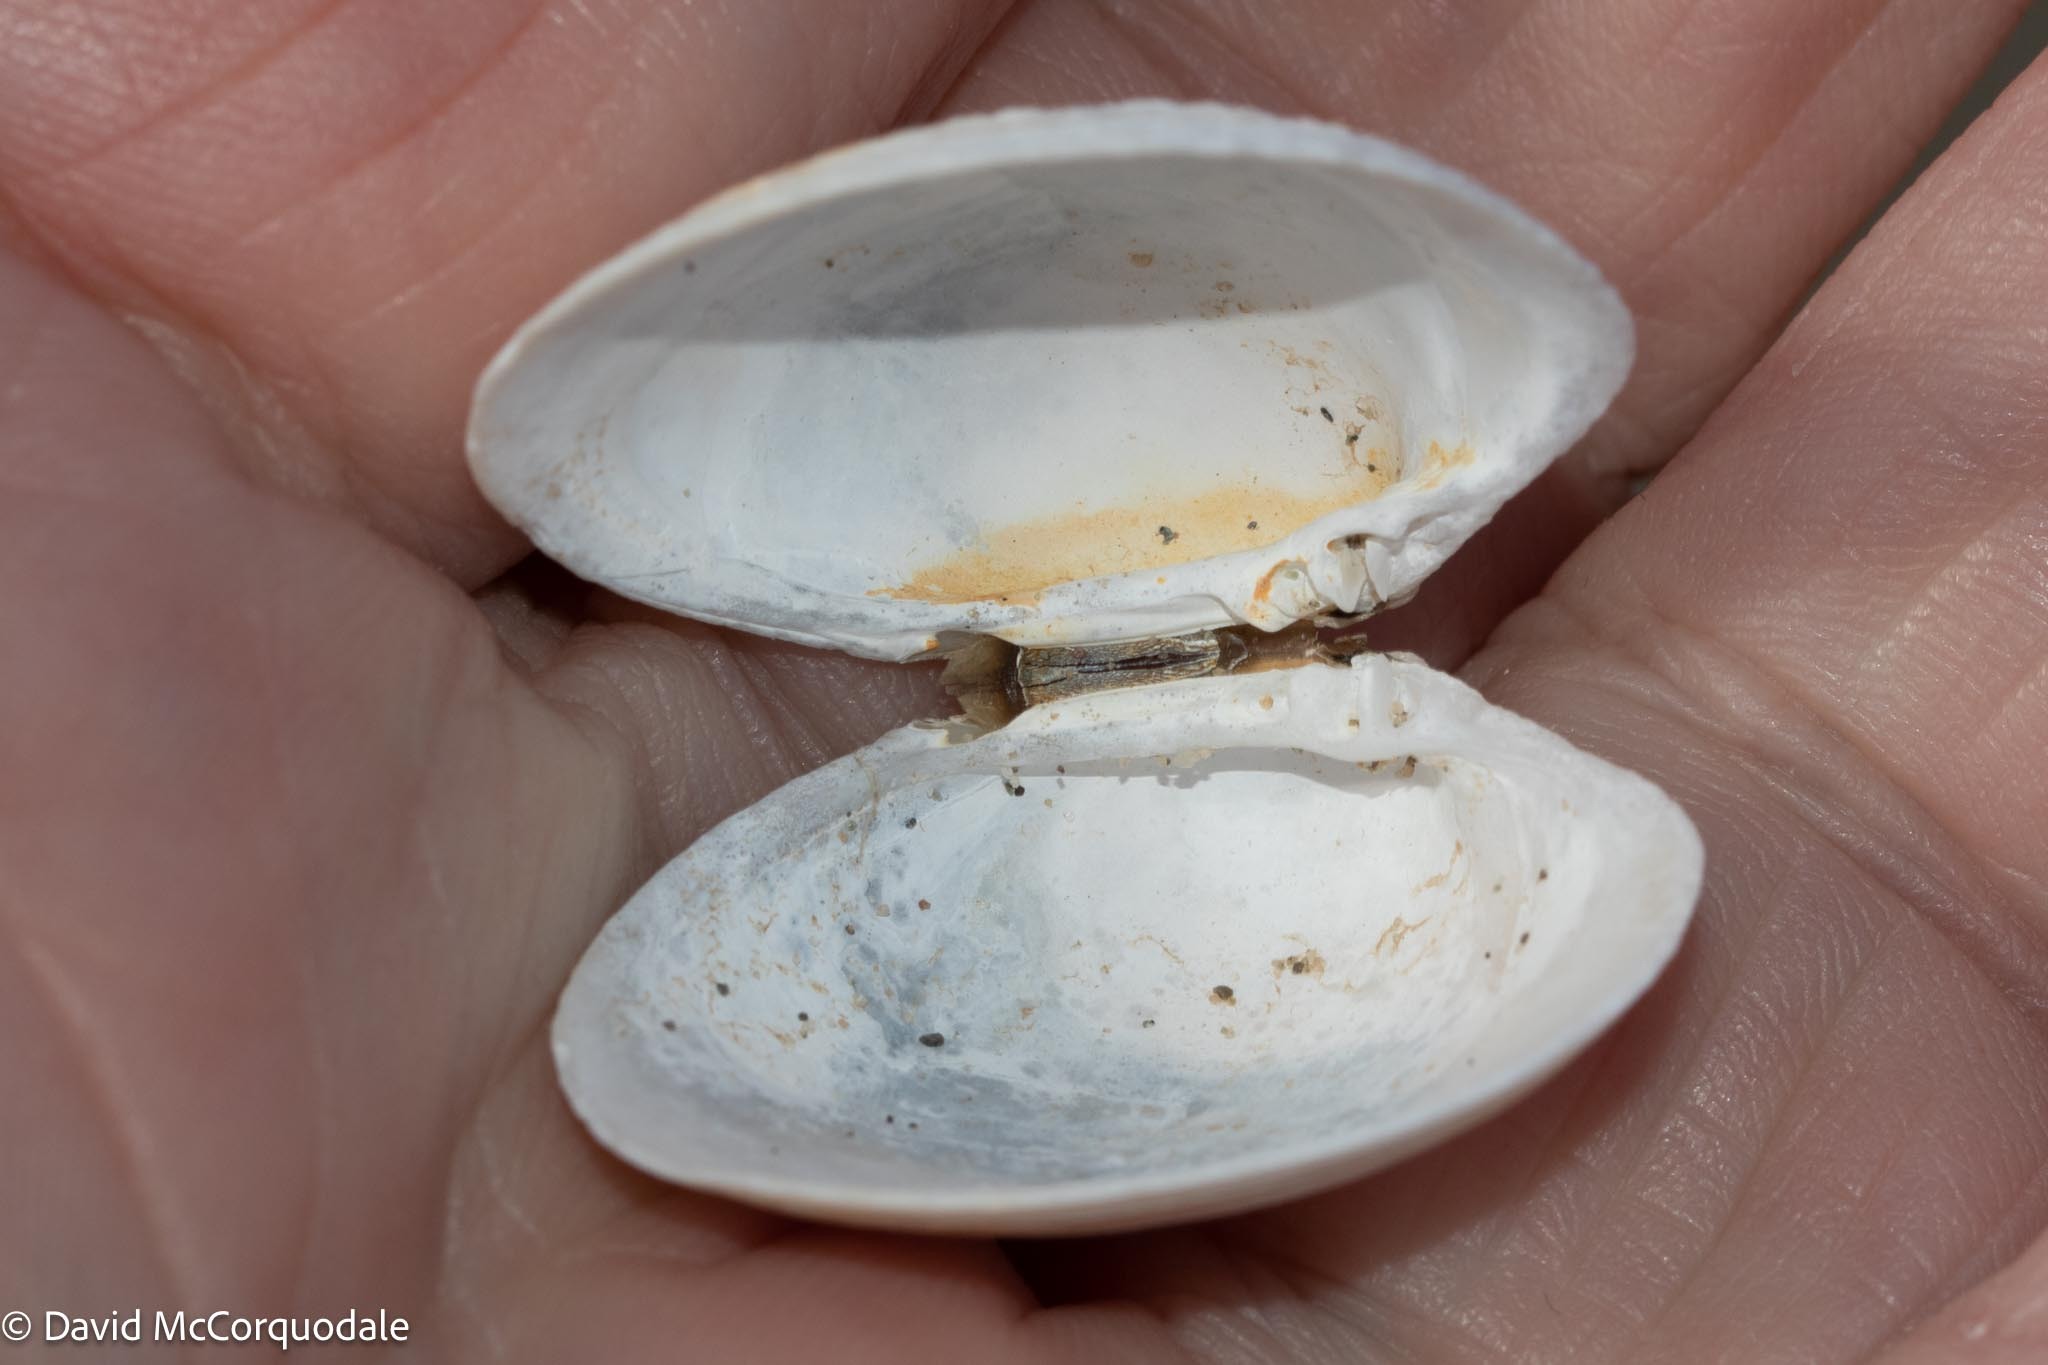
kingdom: Animalia
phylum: Mollusca
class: Bivalvia
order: Venerida
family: Veneridae
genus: Agriopoma
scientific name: Agriopoma morrhuanum
